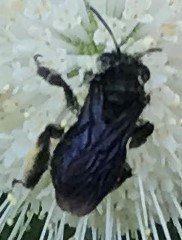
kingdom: Animalia
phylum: Arthropoda
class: Insecta
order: Hymenoptera
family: Apidae
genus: Melissodes
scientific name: Melissodes bimaculatus
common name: Two-spotted long-horned bee
